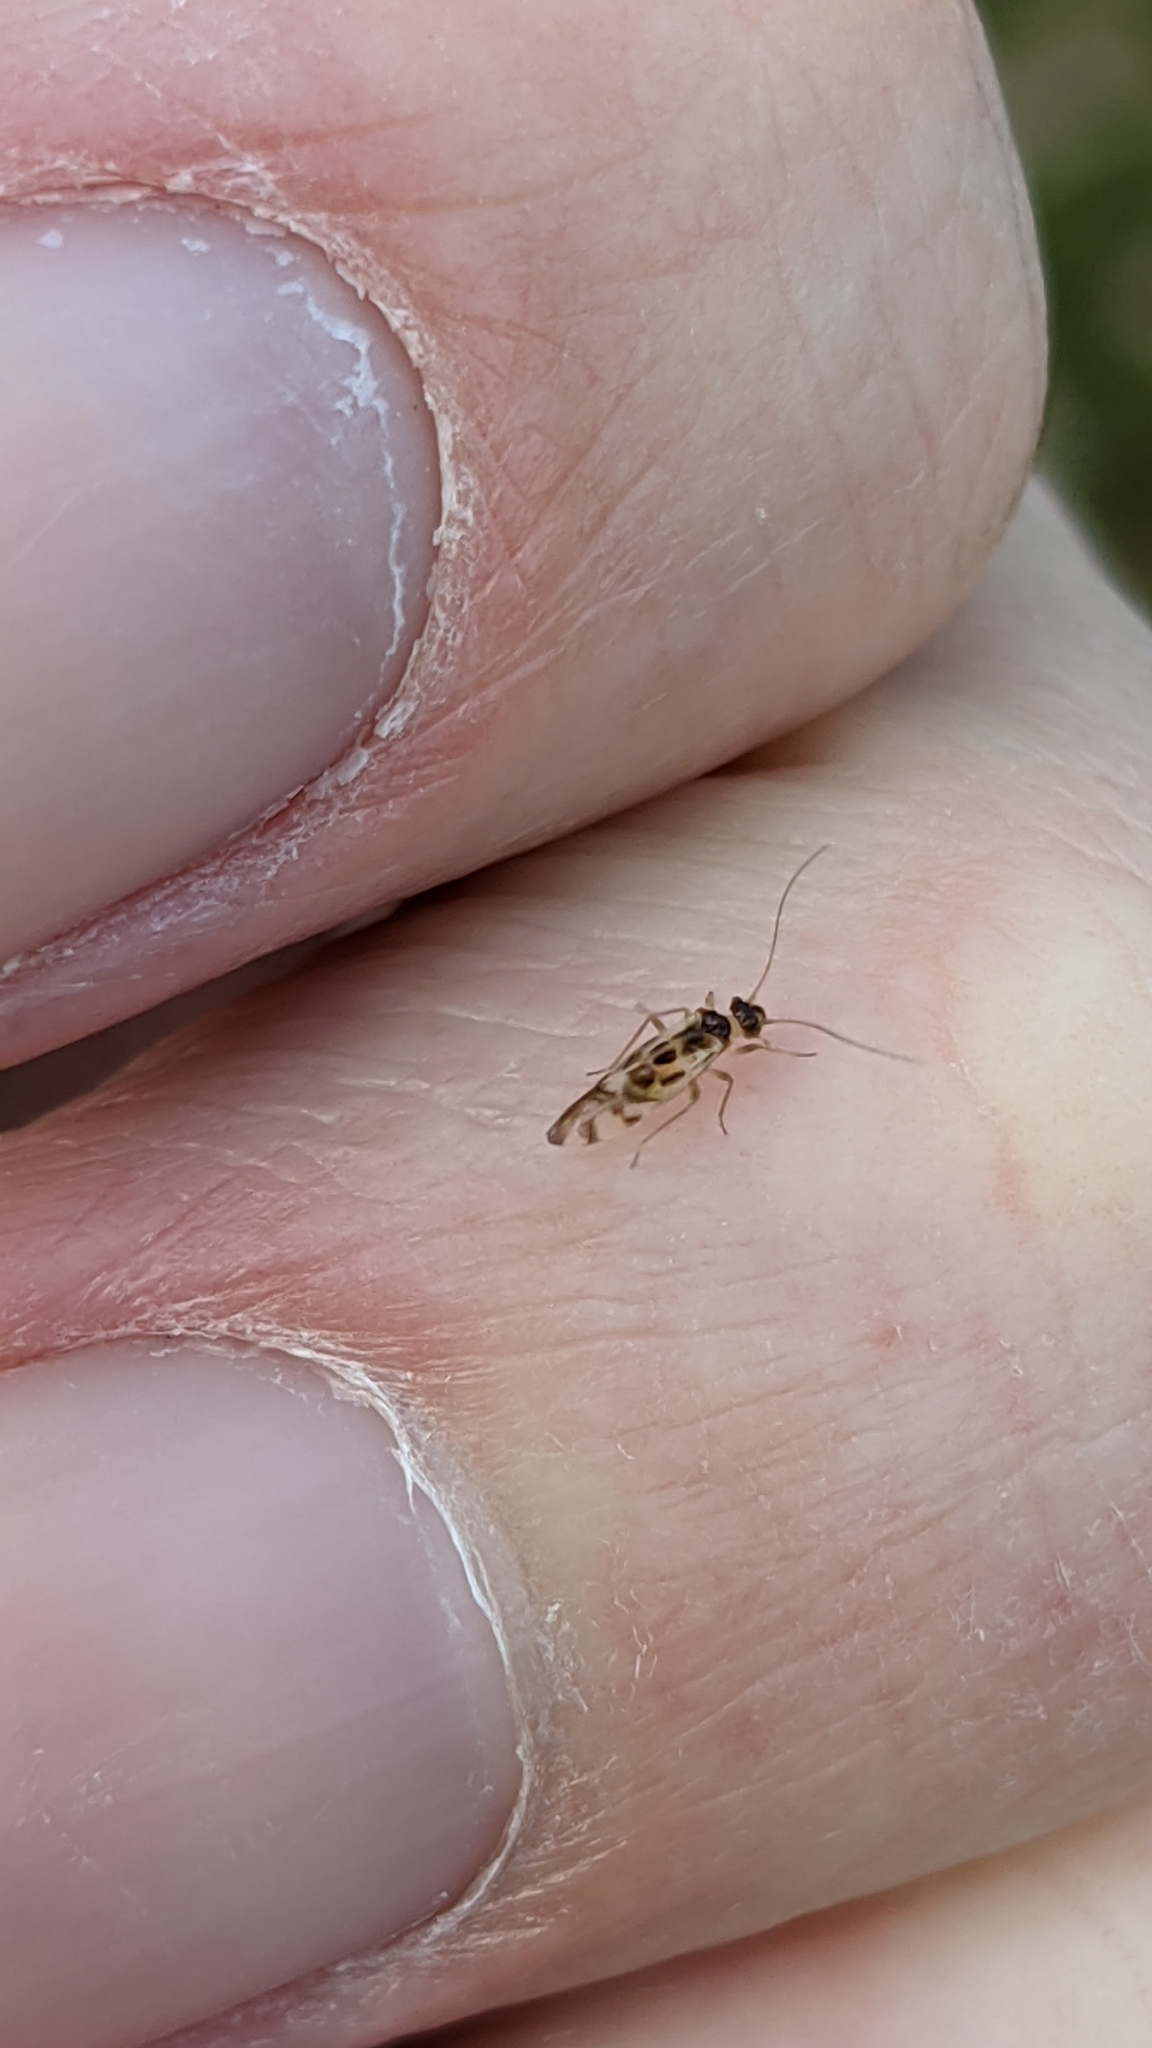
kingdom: Animalia
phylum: Arthropoda
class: Insecta
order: Psocodea
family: Stenopsocidae
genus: Graphopsocus
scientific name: Graphopsocus cruciatus
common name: Lizard bark louse
